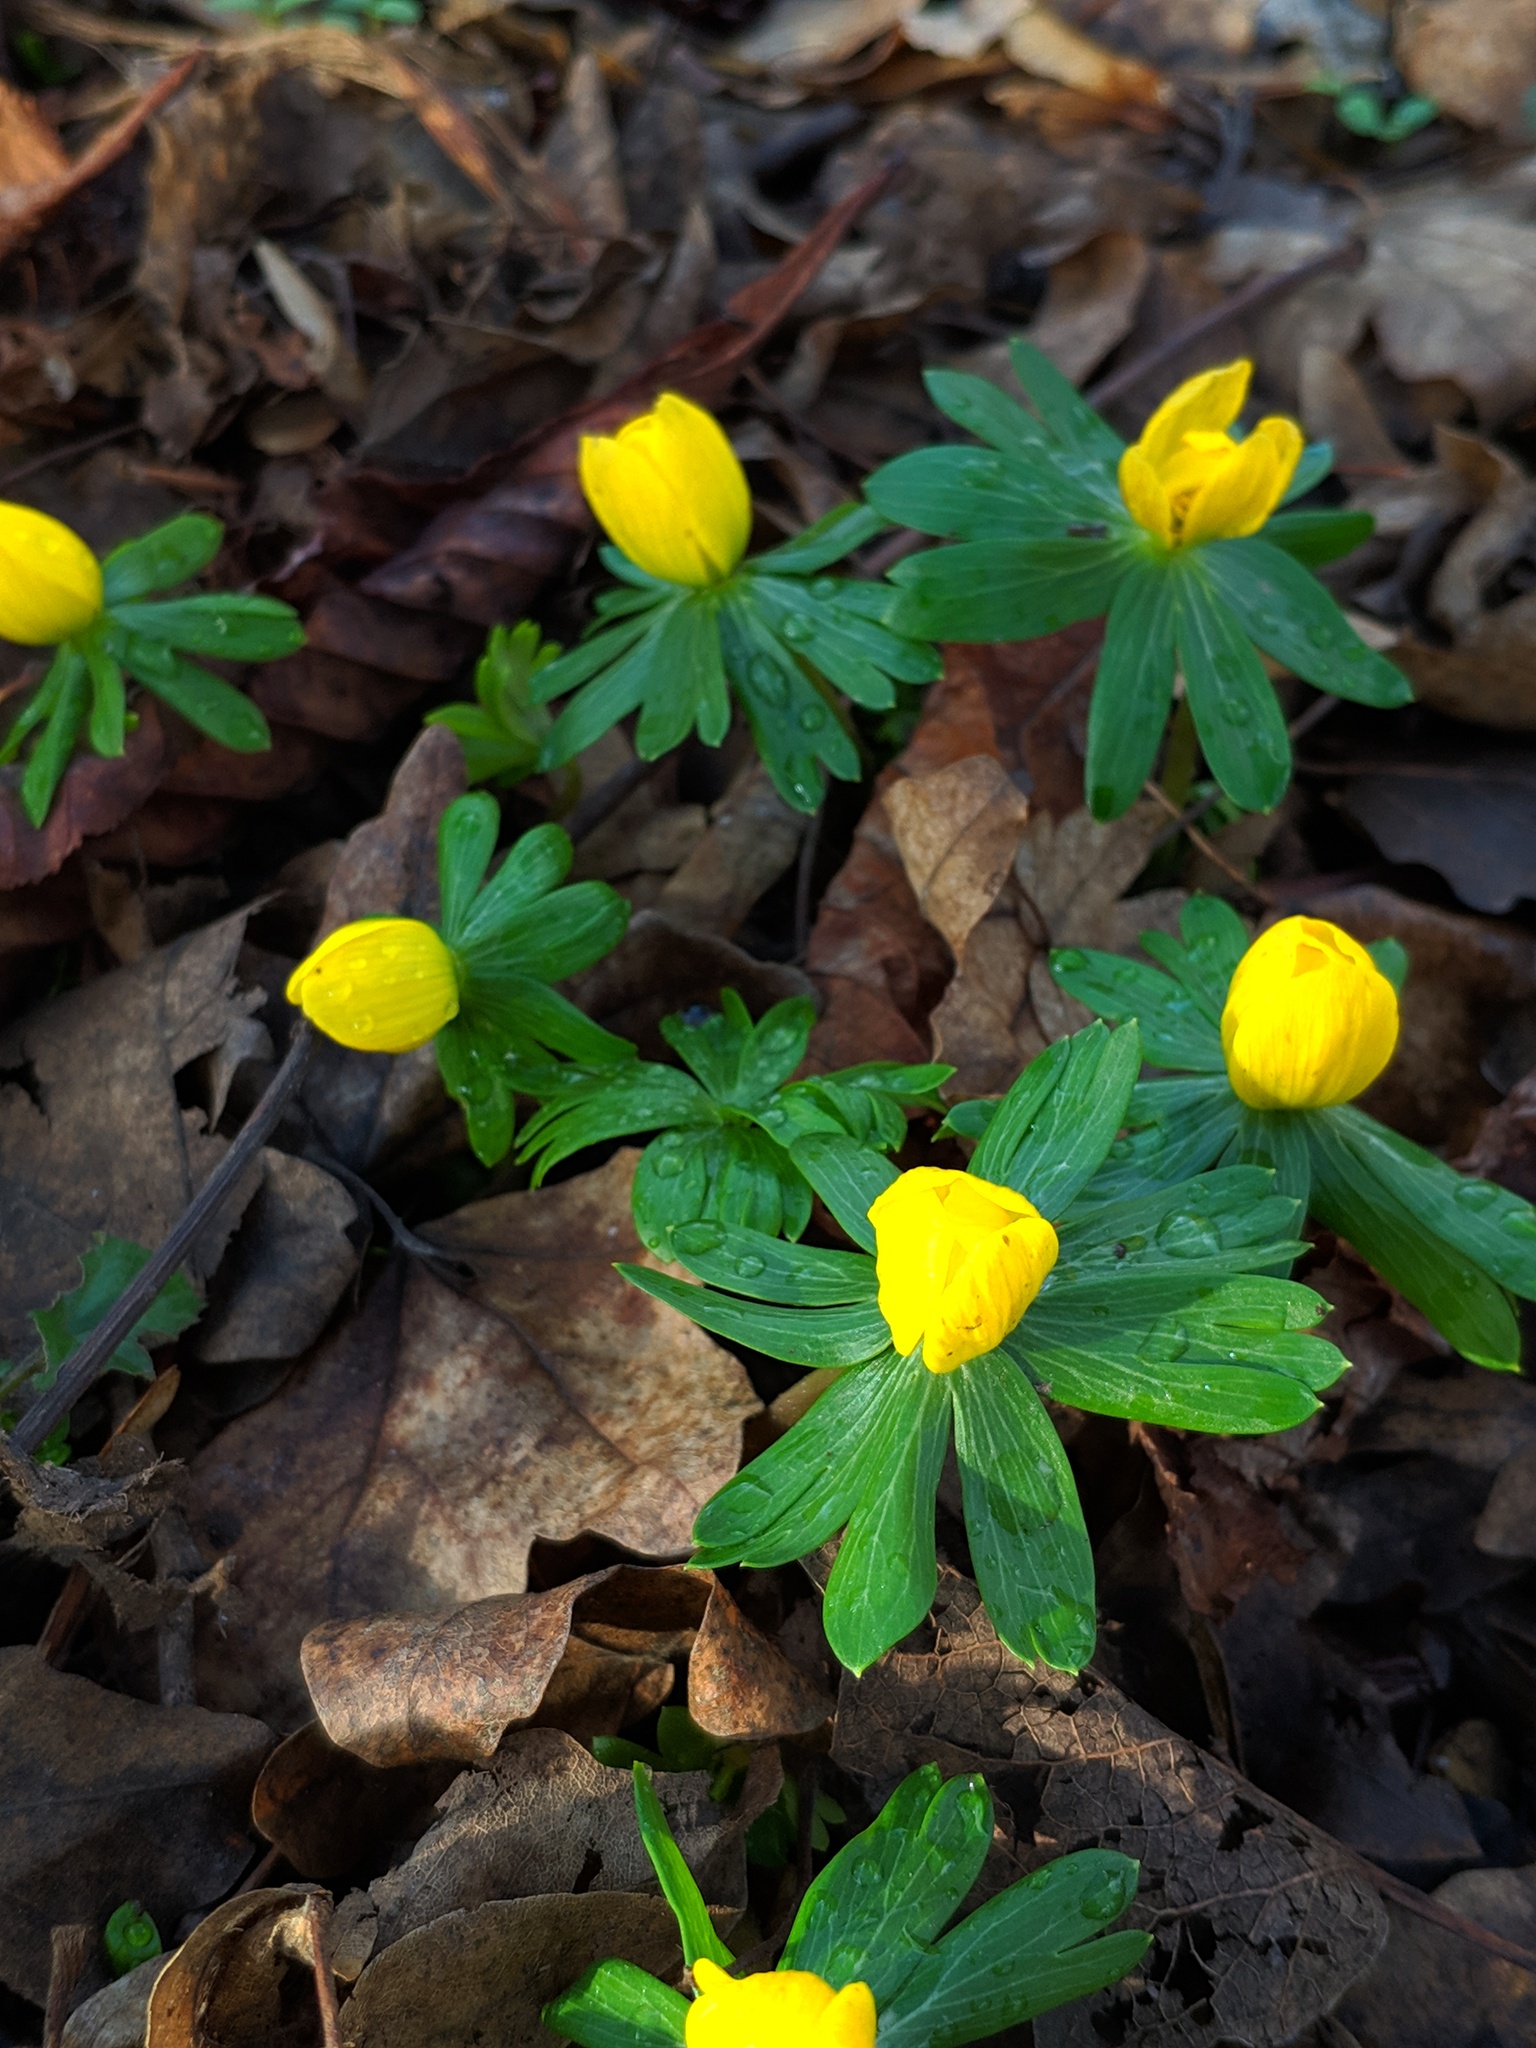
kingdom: Plantae
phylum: Tracheophyta
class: Magnoliopsida
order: Ranunculales
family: Ranunculaceae
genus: Eranthis
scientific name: Eranthis hyemalis
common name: Winter aconite
